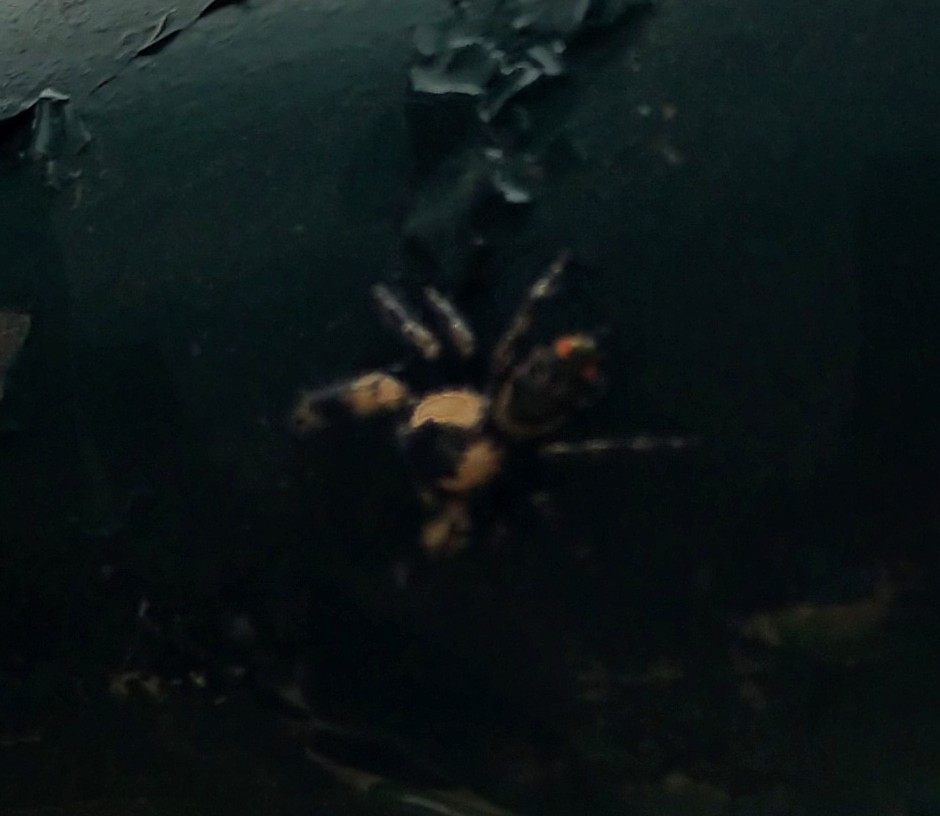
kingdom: Animalia
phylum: Arthropoda
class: Arachnida
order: Araneae
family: Salticidae
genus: Phidippus
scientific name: Phidippus otiosus
